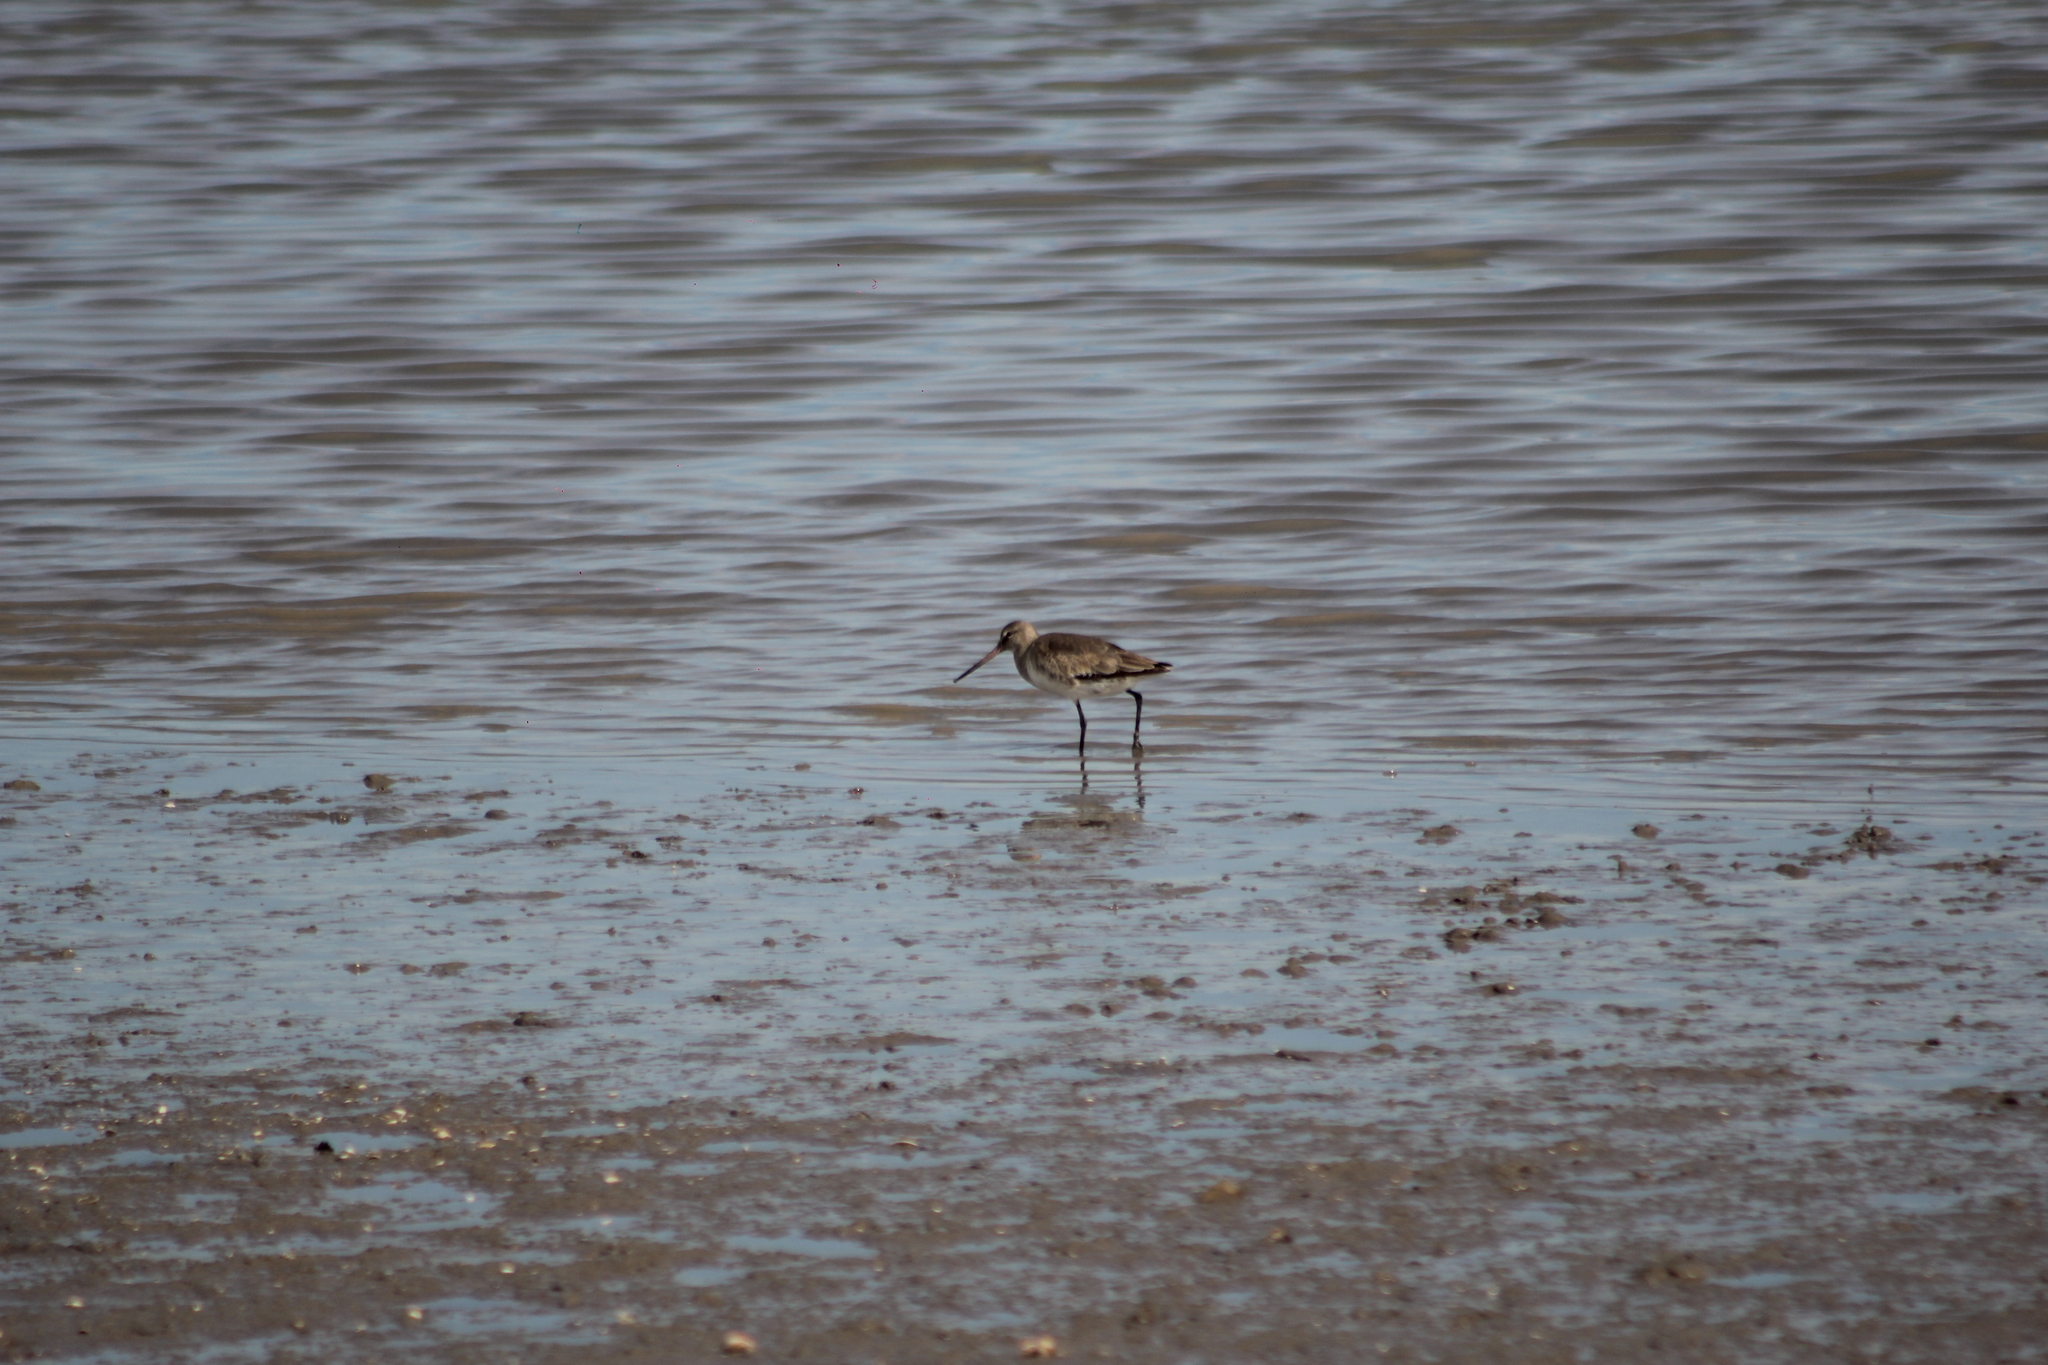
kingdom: Animalia
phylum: Chordata
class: Aves
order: Charadriiformes
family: Scolopacidae
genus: Limosa
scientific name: Limosa haemastica
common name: Hudsonian godwit
